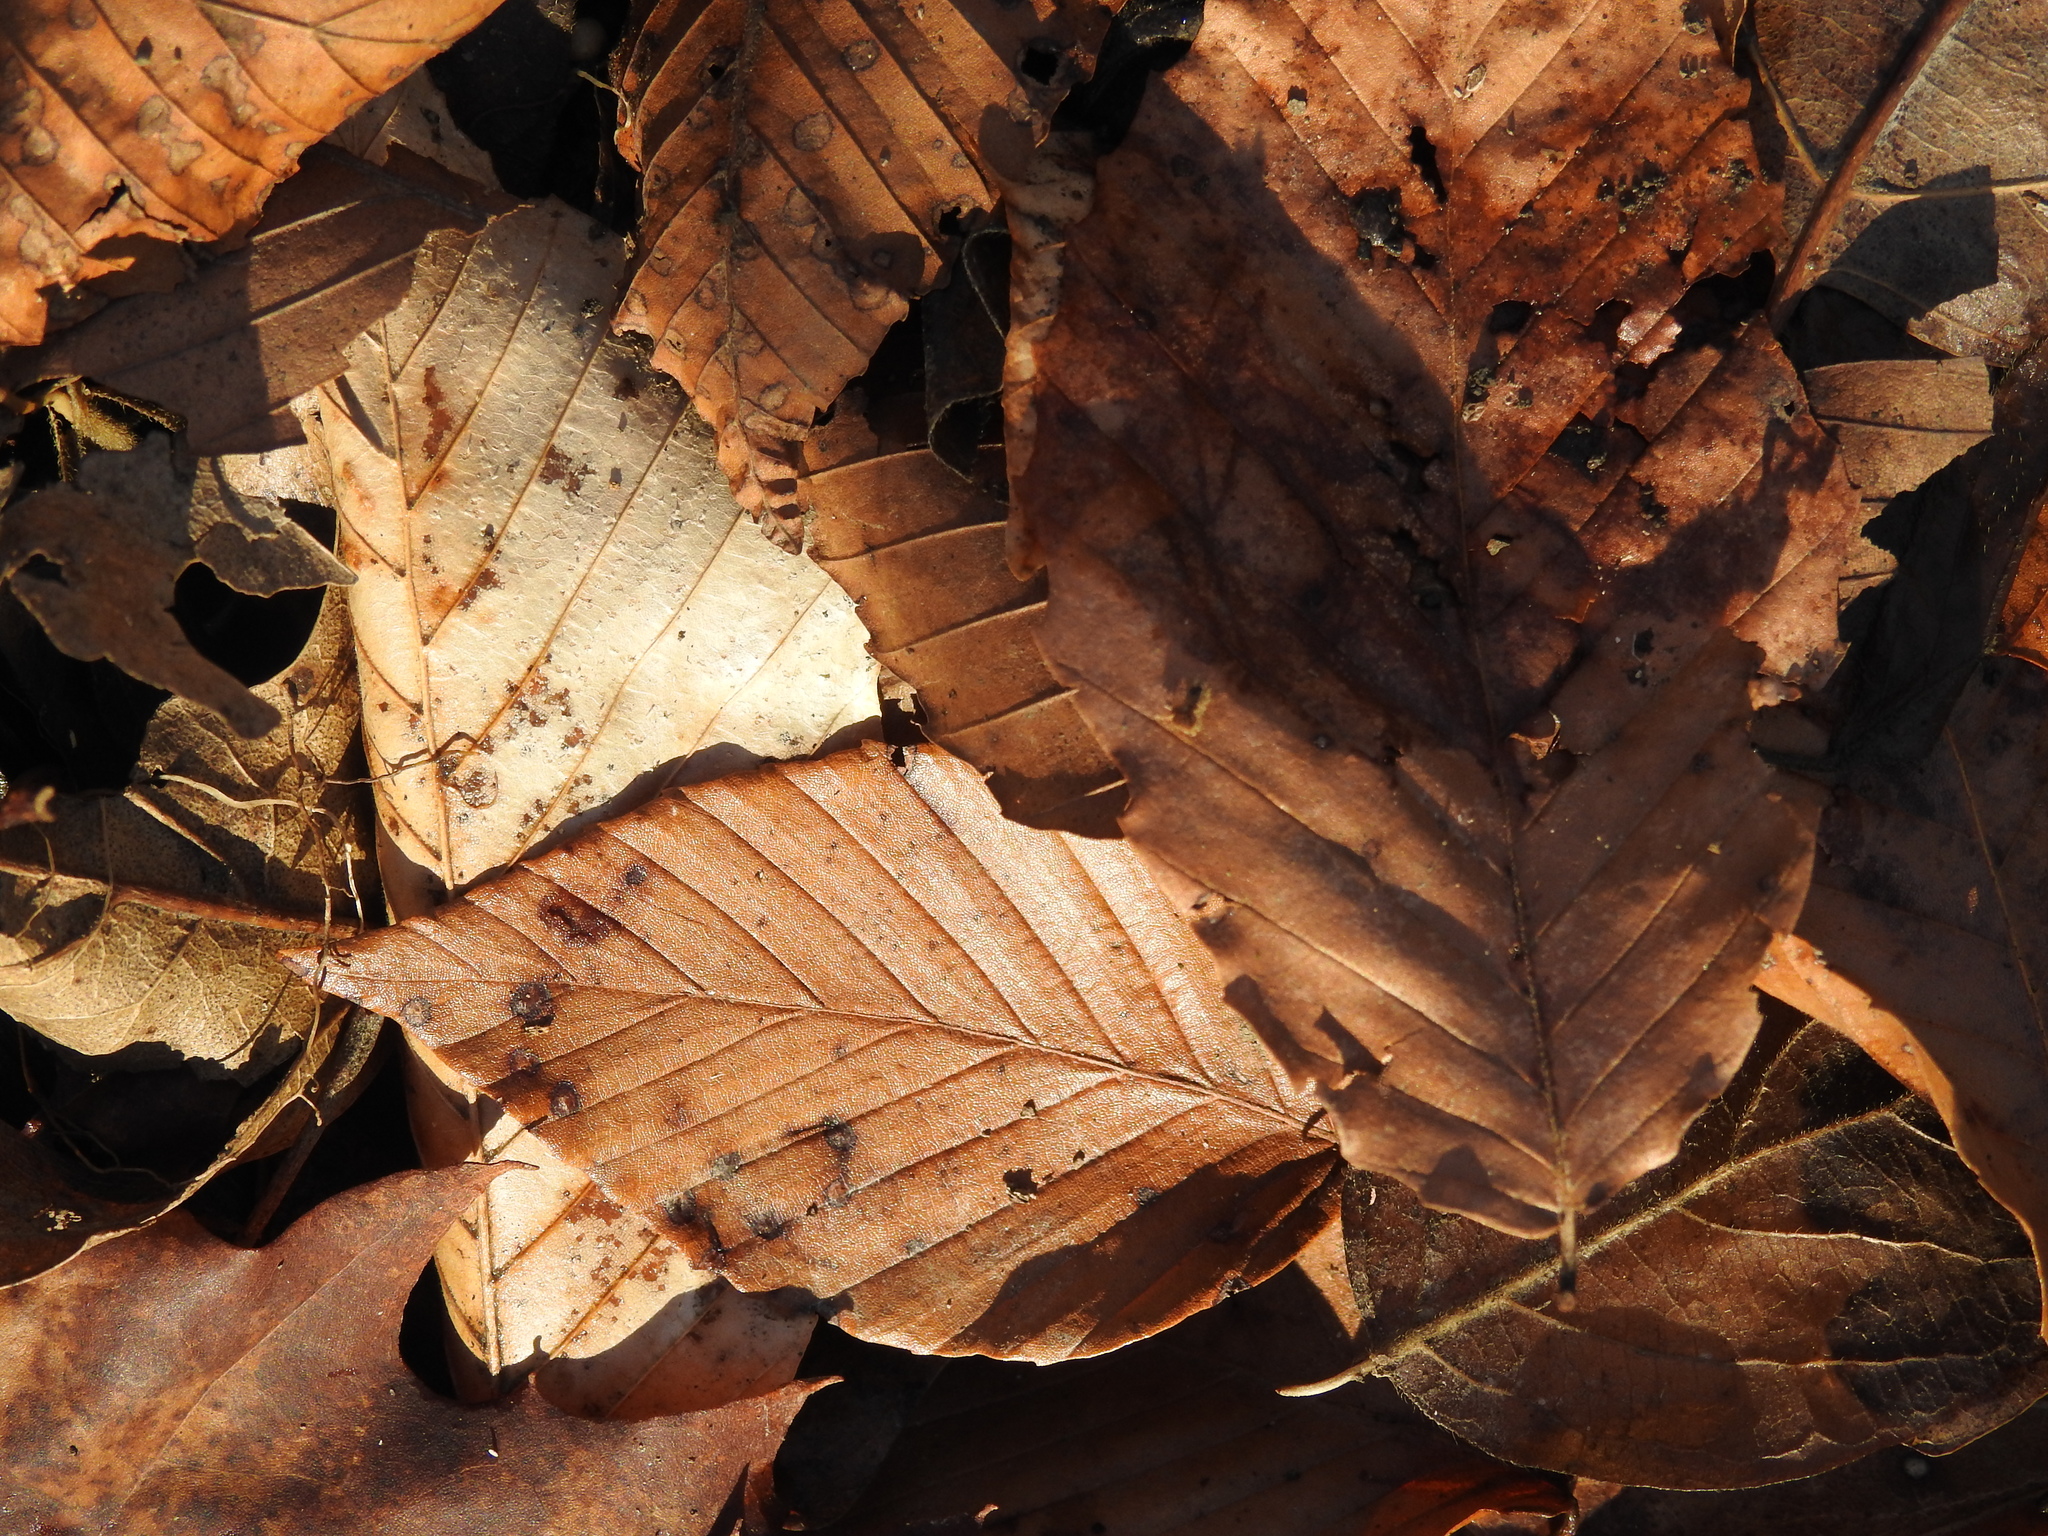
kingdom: Plantae
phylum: Tracheophyta
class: Magnoliopsida
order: Fagales
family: Fagaceae
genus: Fagus
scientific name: Fagus grandifolia
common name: American beech
